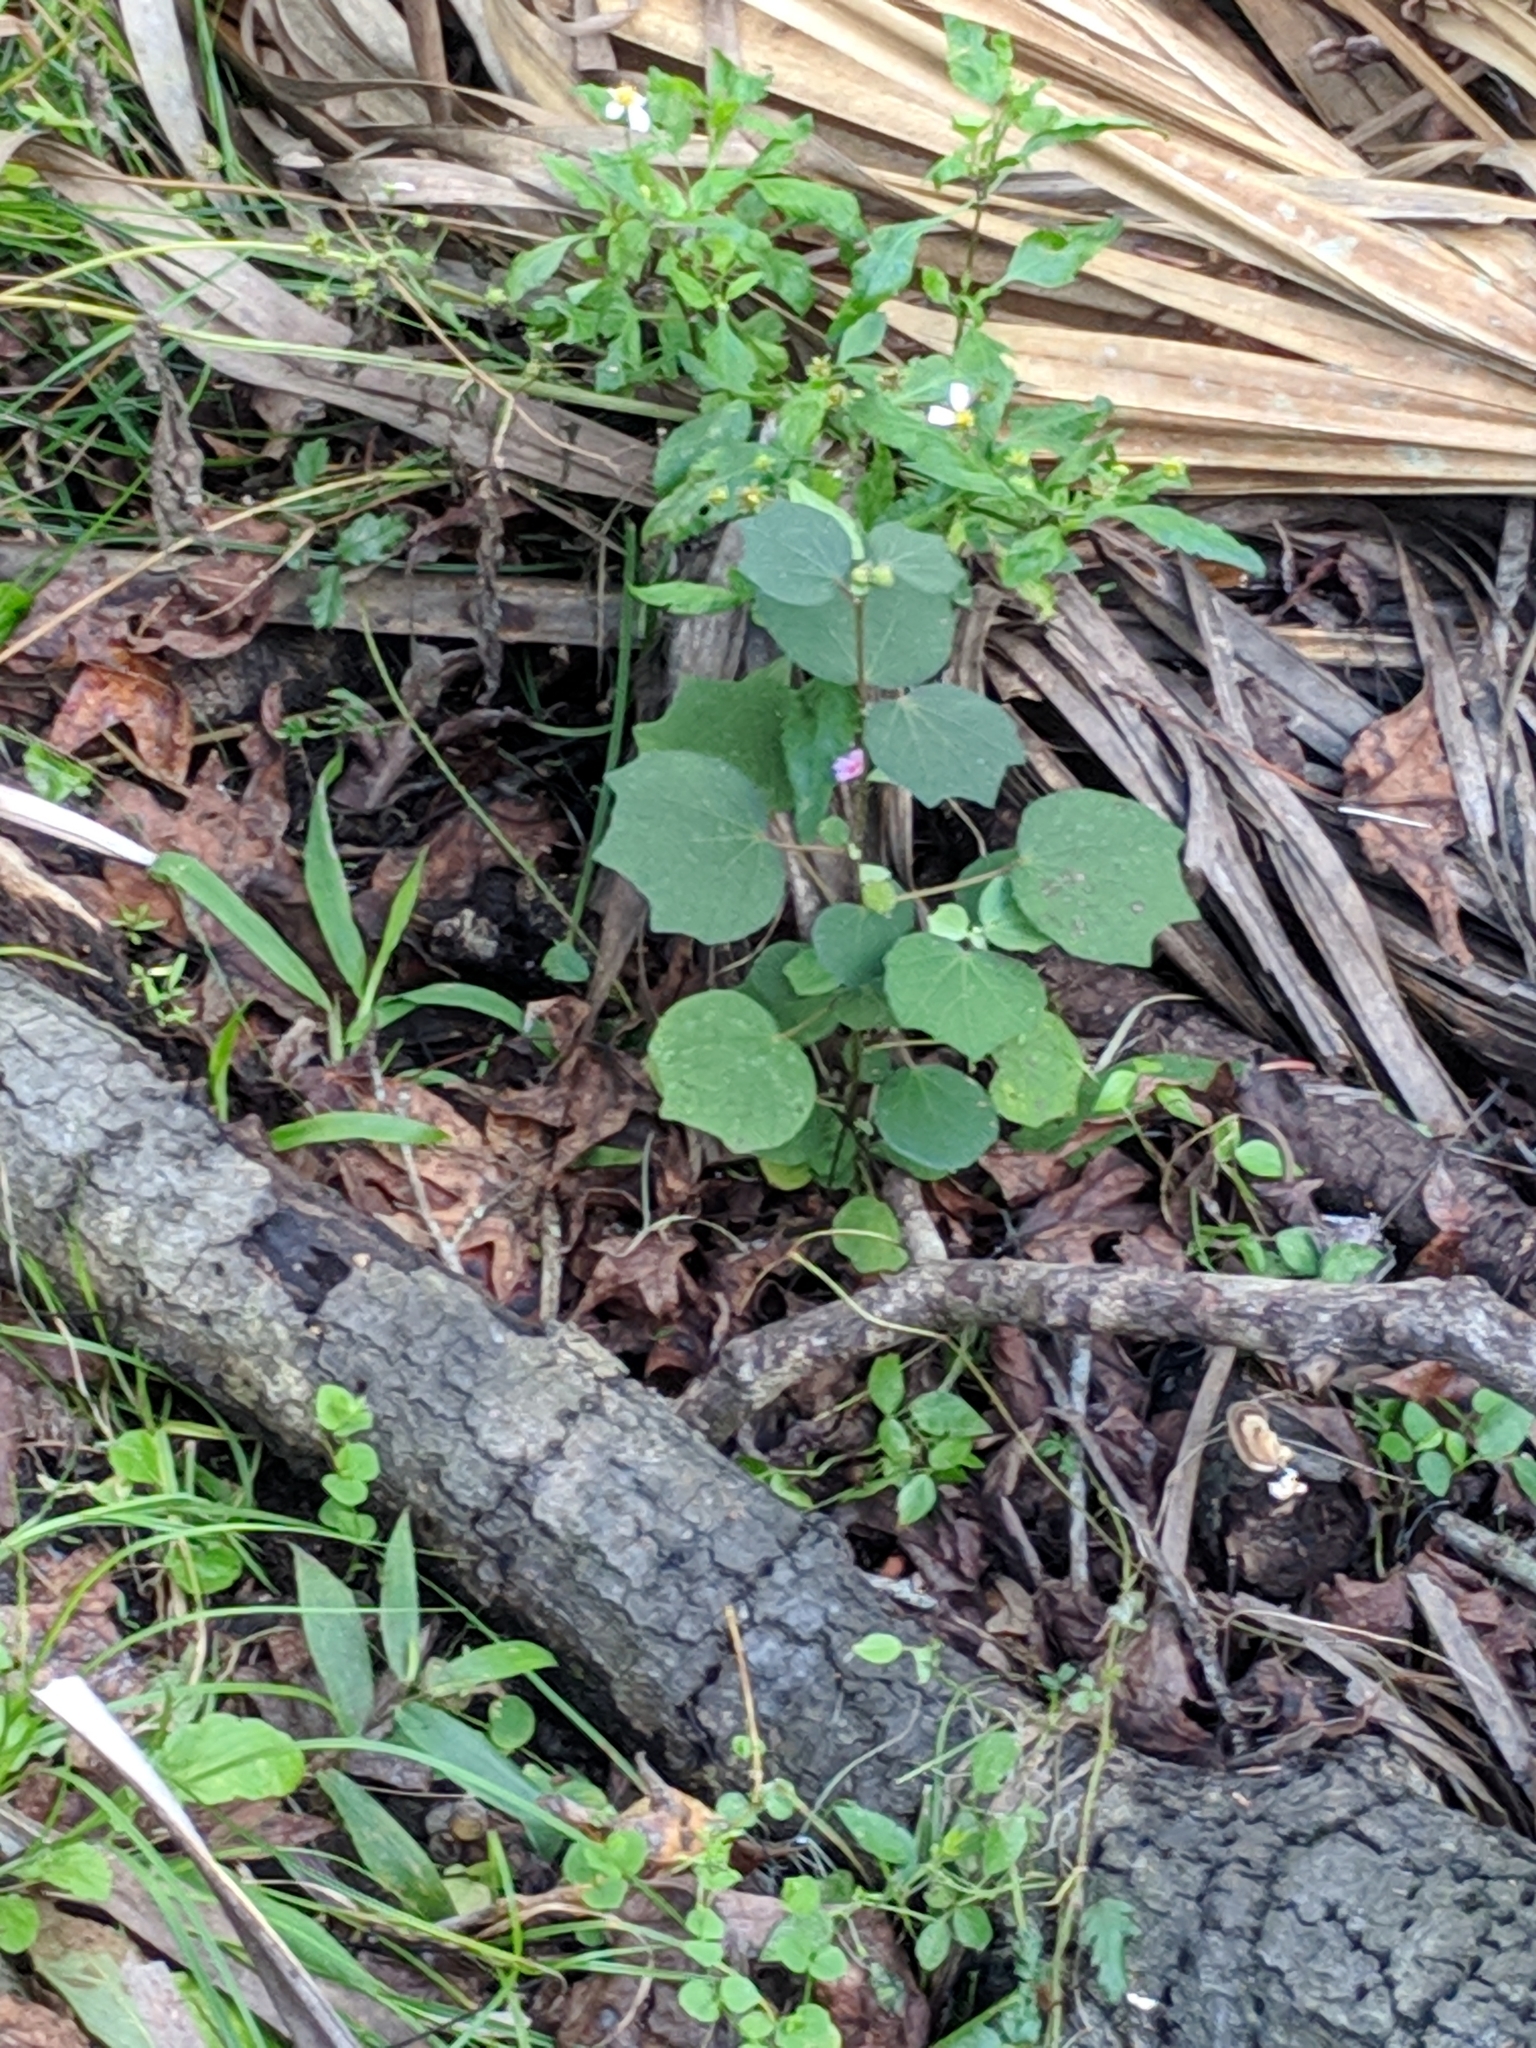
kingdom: Plantae
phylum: Tracheophyta
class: Magnoliopsida
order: Malvales
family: Malvaceae
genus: Urena
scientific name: Urena lobata
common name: Caesarweed
